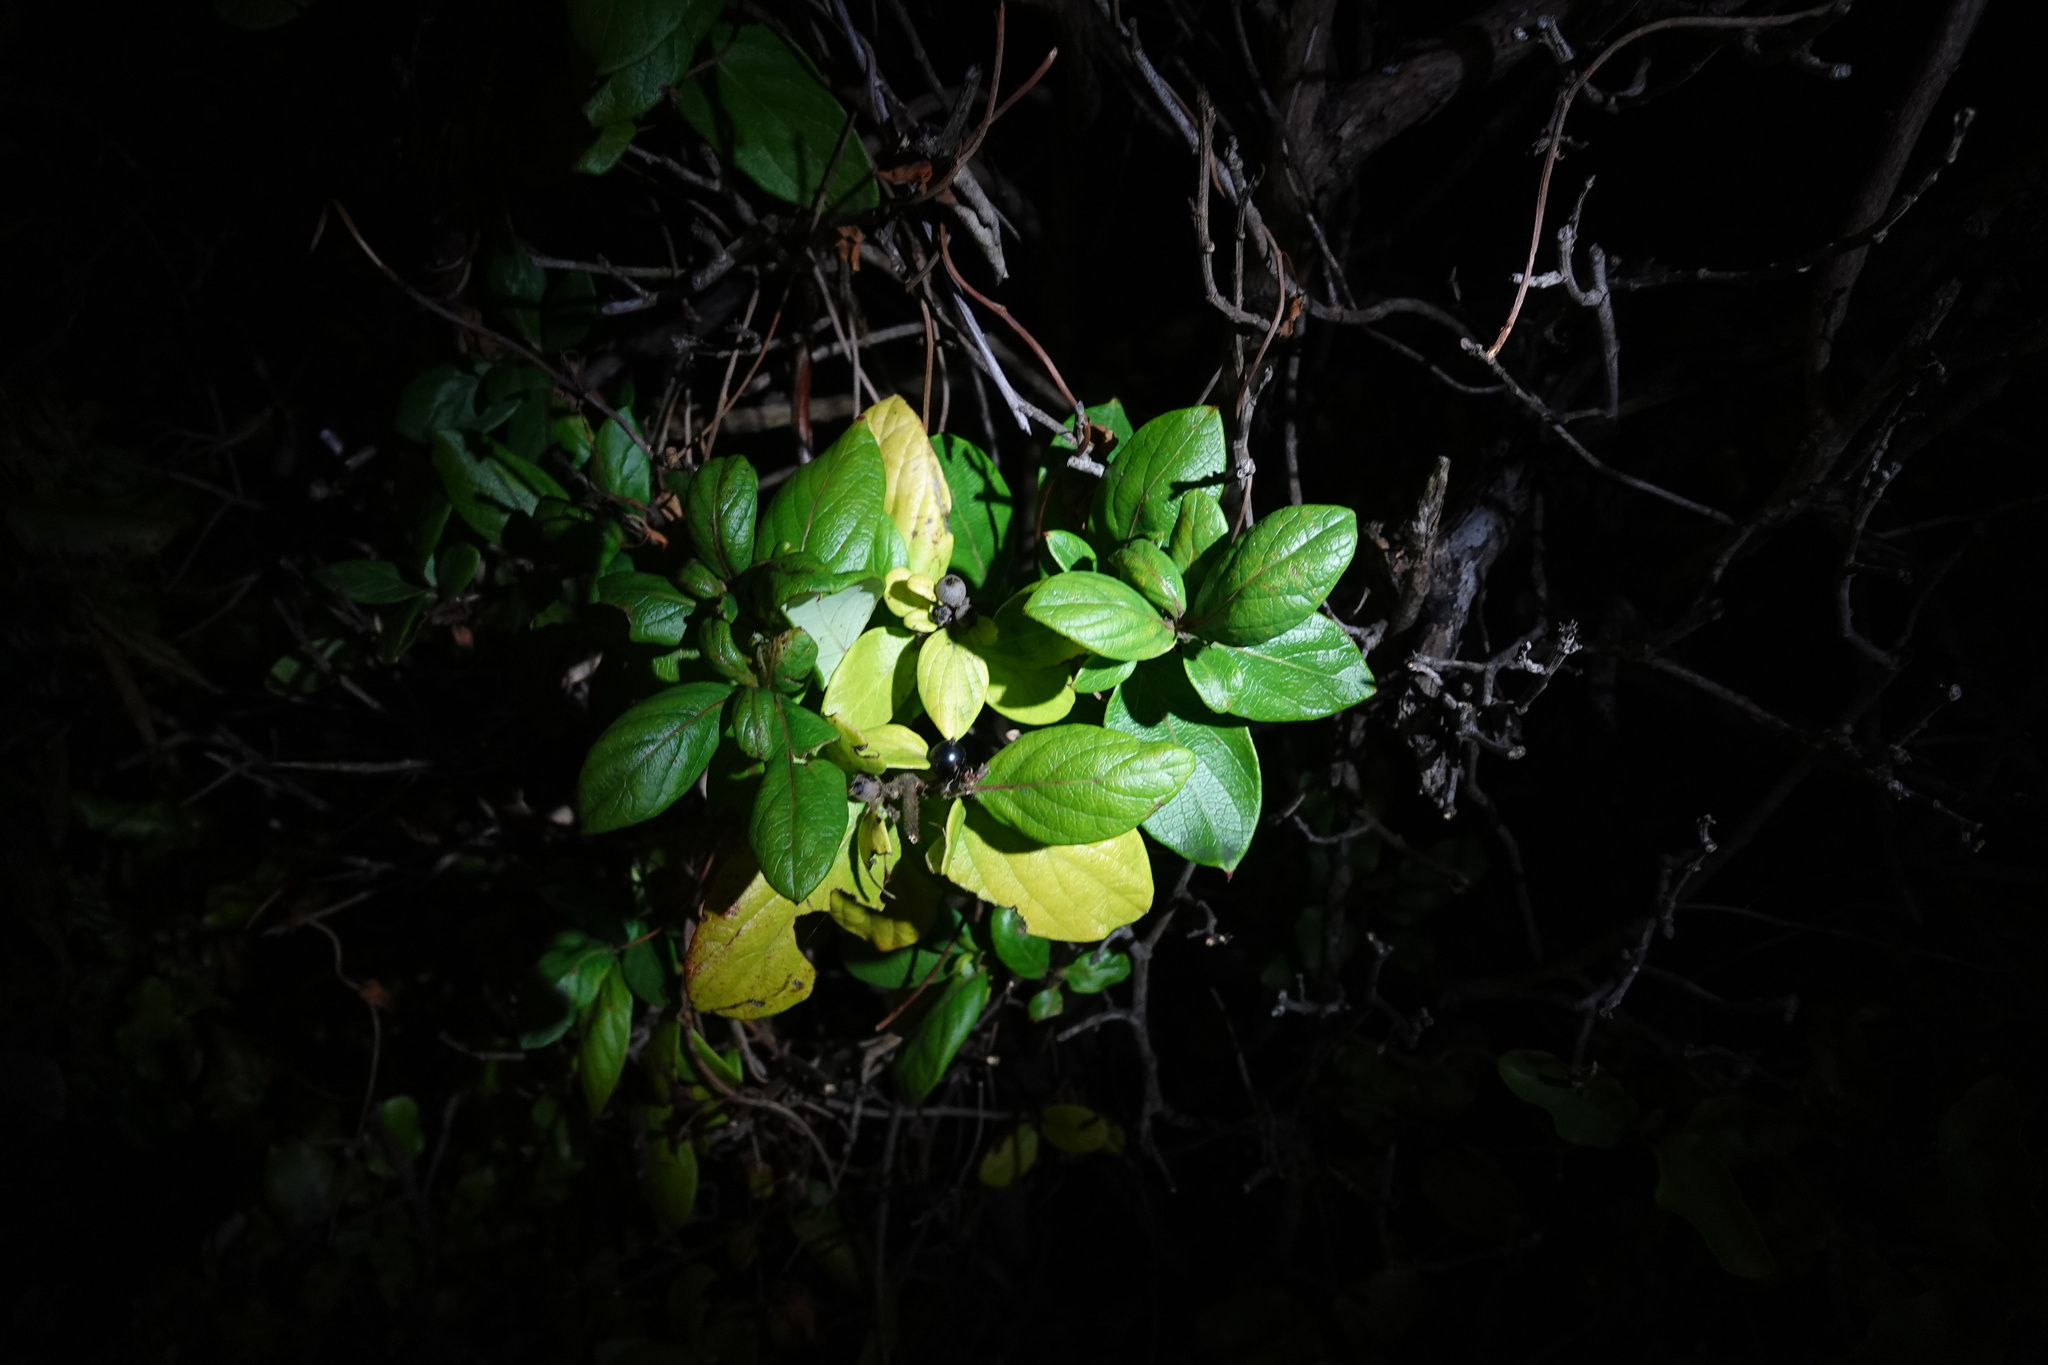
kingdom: Plantae
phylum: Tracheophyta
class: Magnoliopsida
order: Dipsacales
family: Caprifoliaceae
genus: Lonicera
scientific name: Lonicera japonica
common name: Japanese honeysuckle
